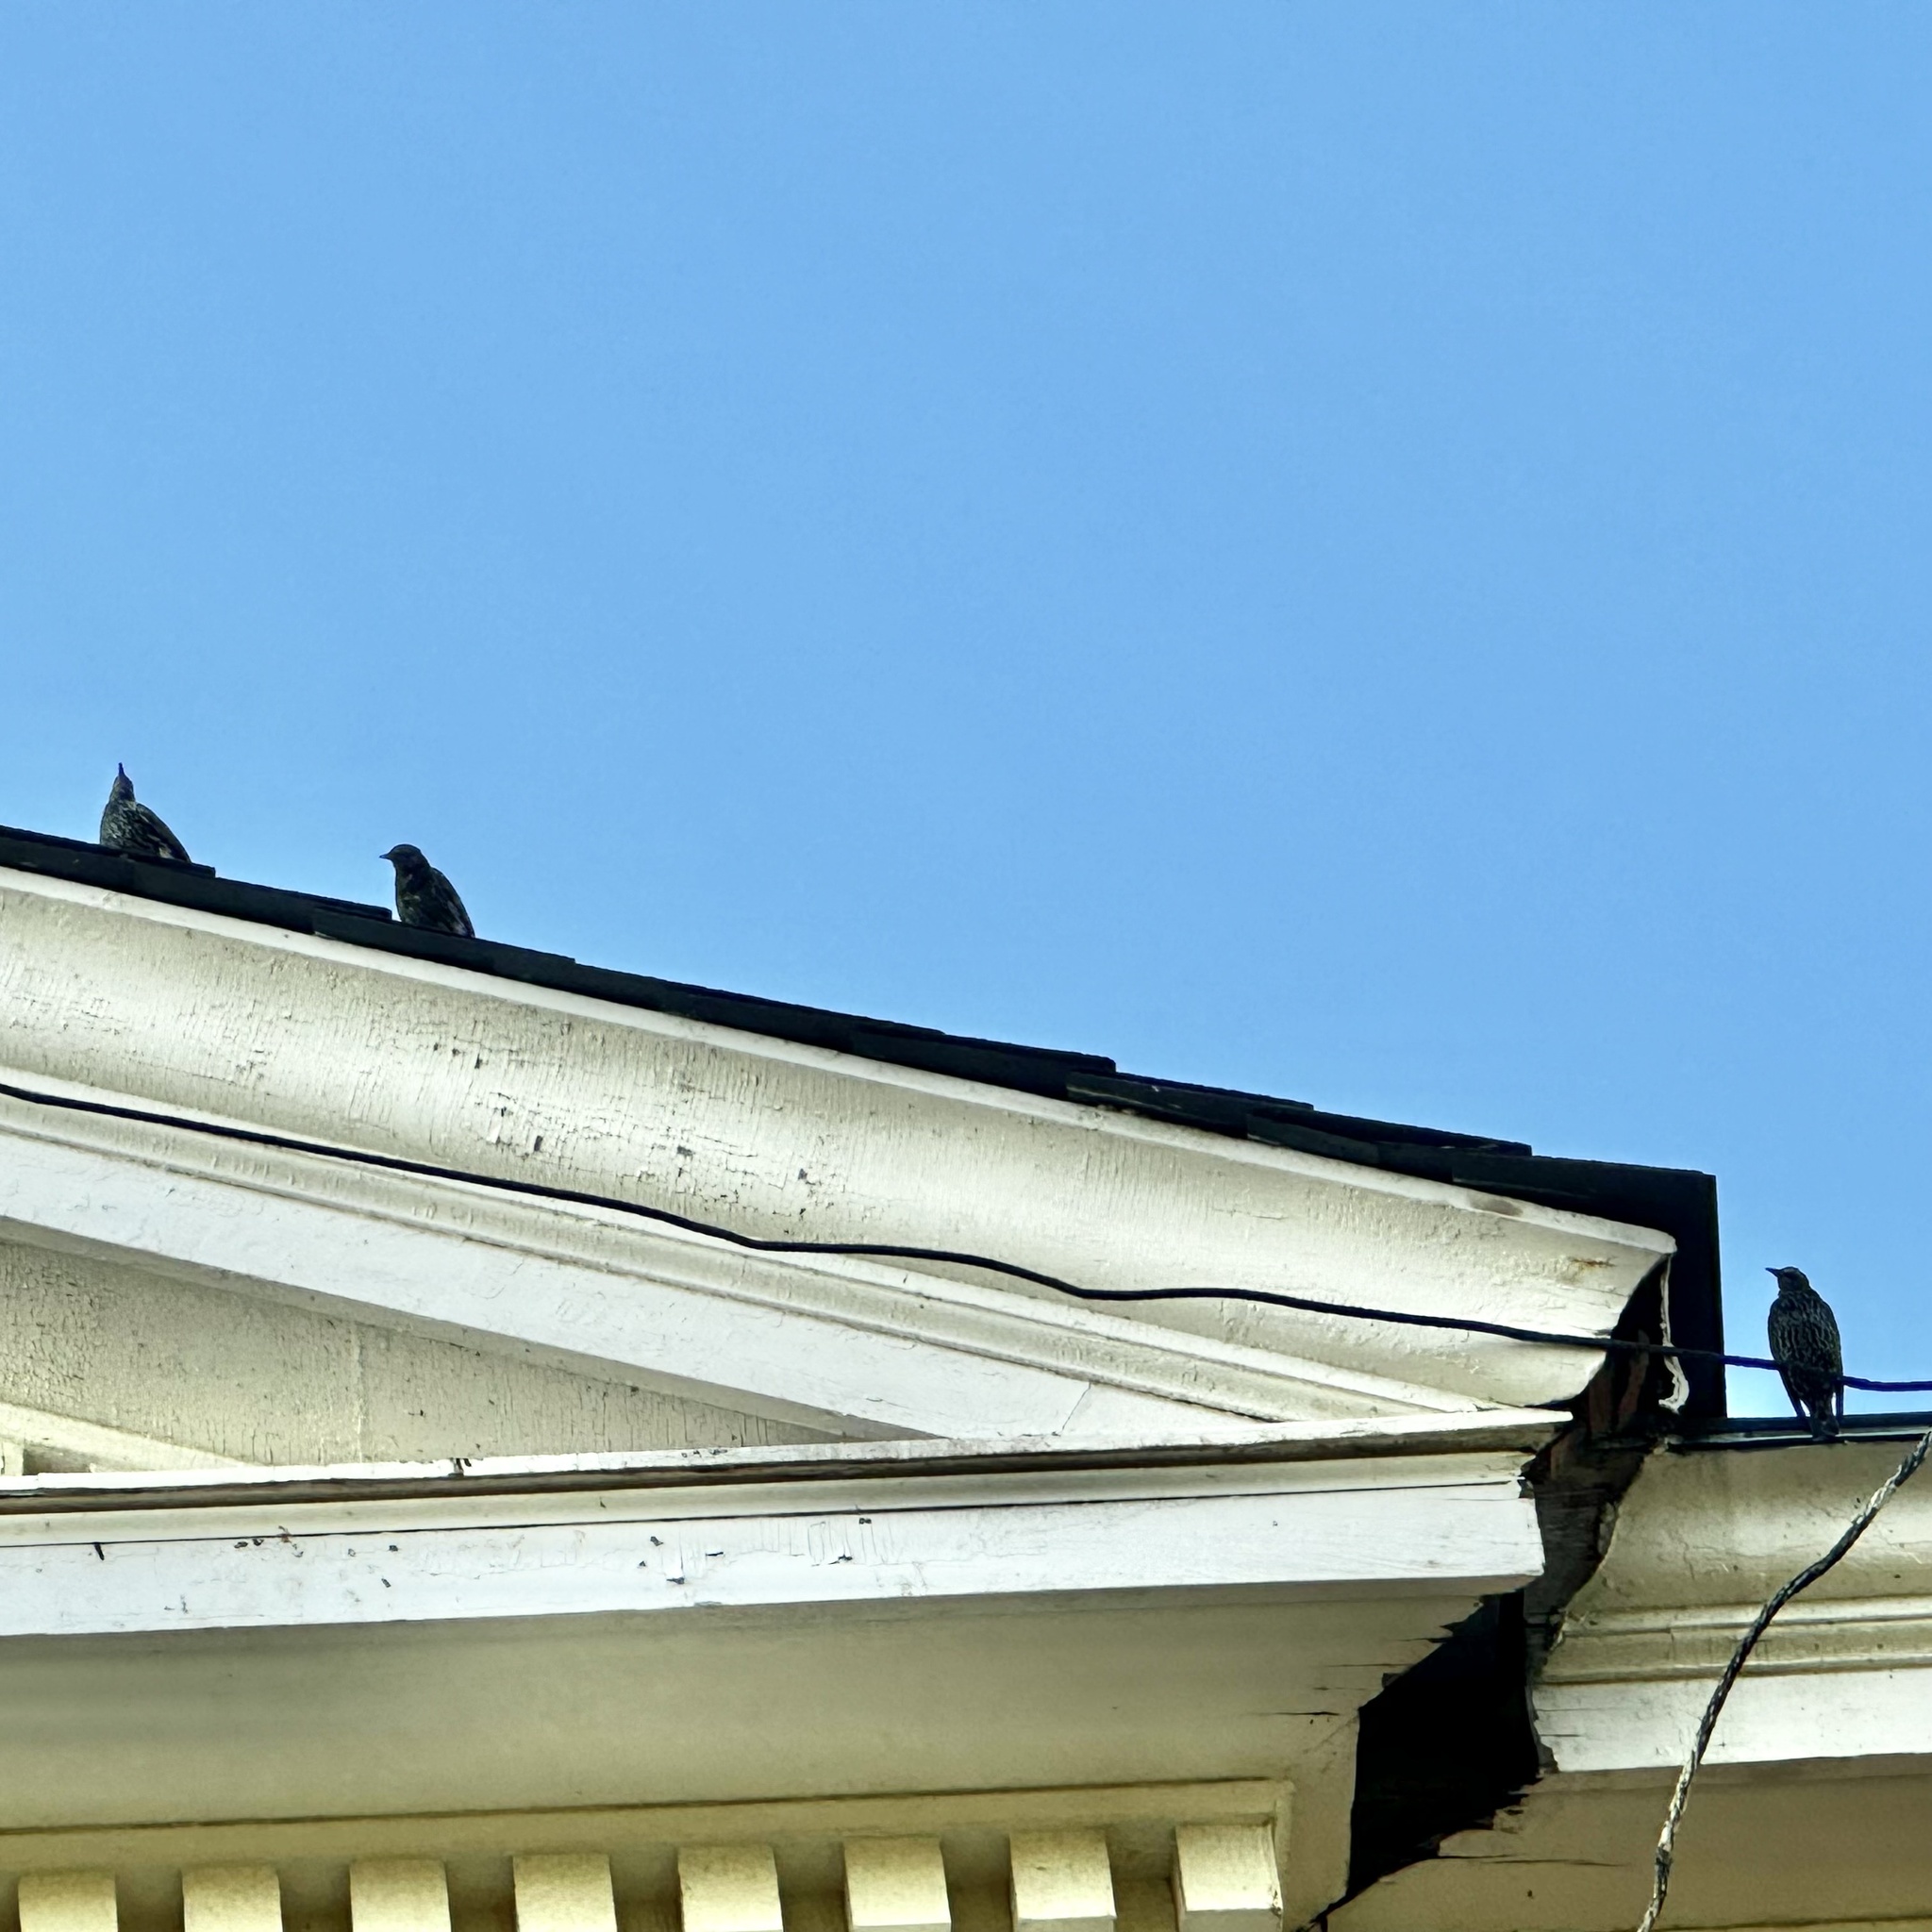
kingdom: Animalia
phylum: Chordata
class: Aves
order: Passeriformes
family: Sturnidae
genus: Sturnus
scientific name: Sturnus vulgaris
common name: Common starling
